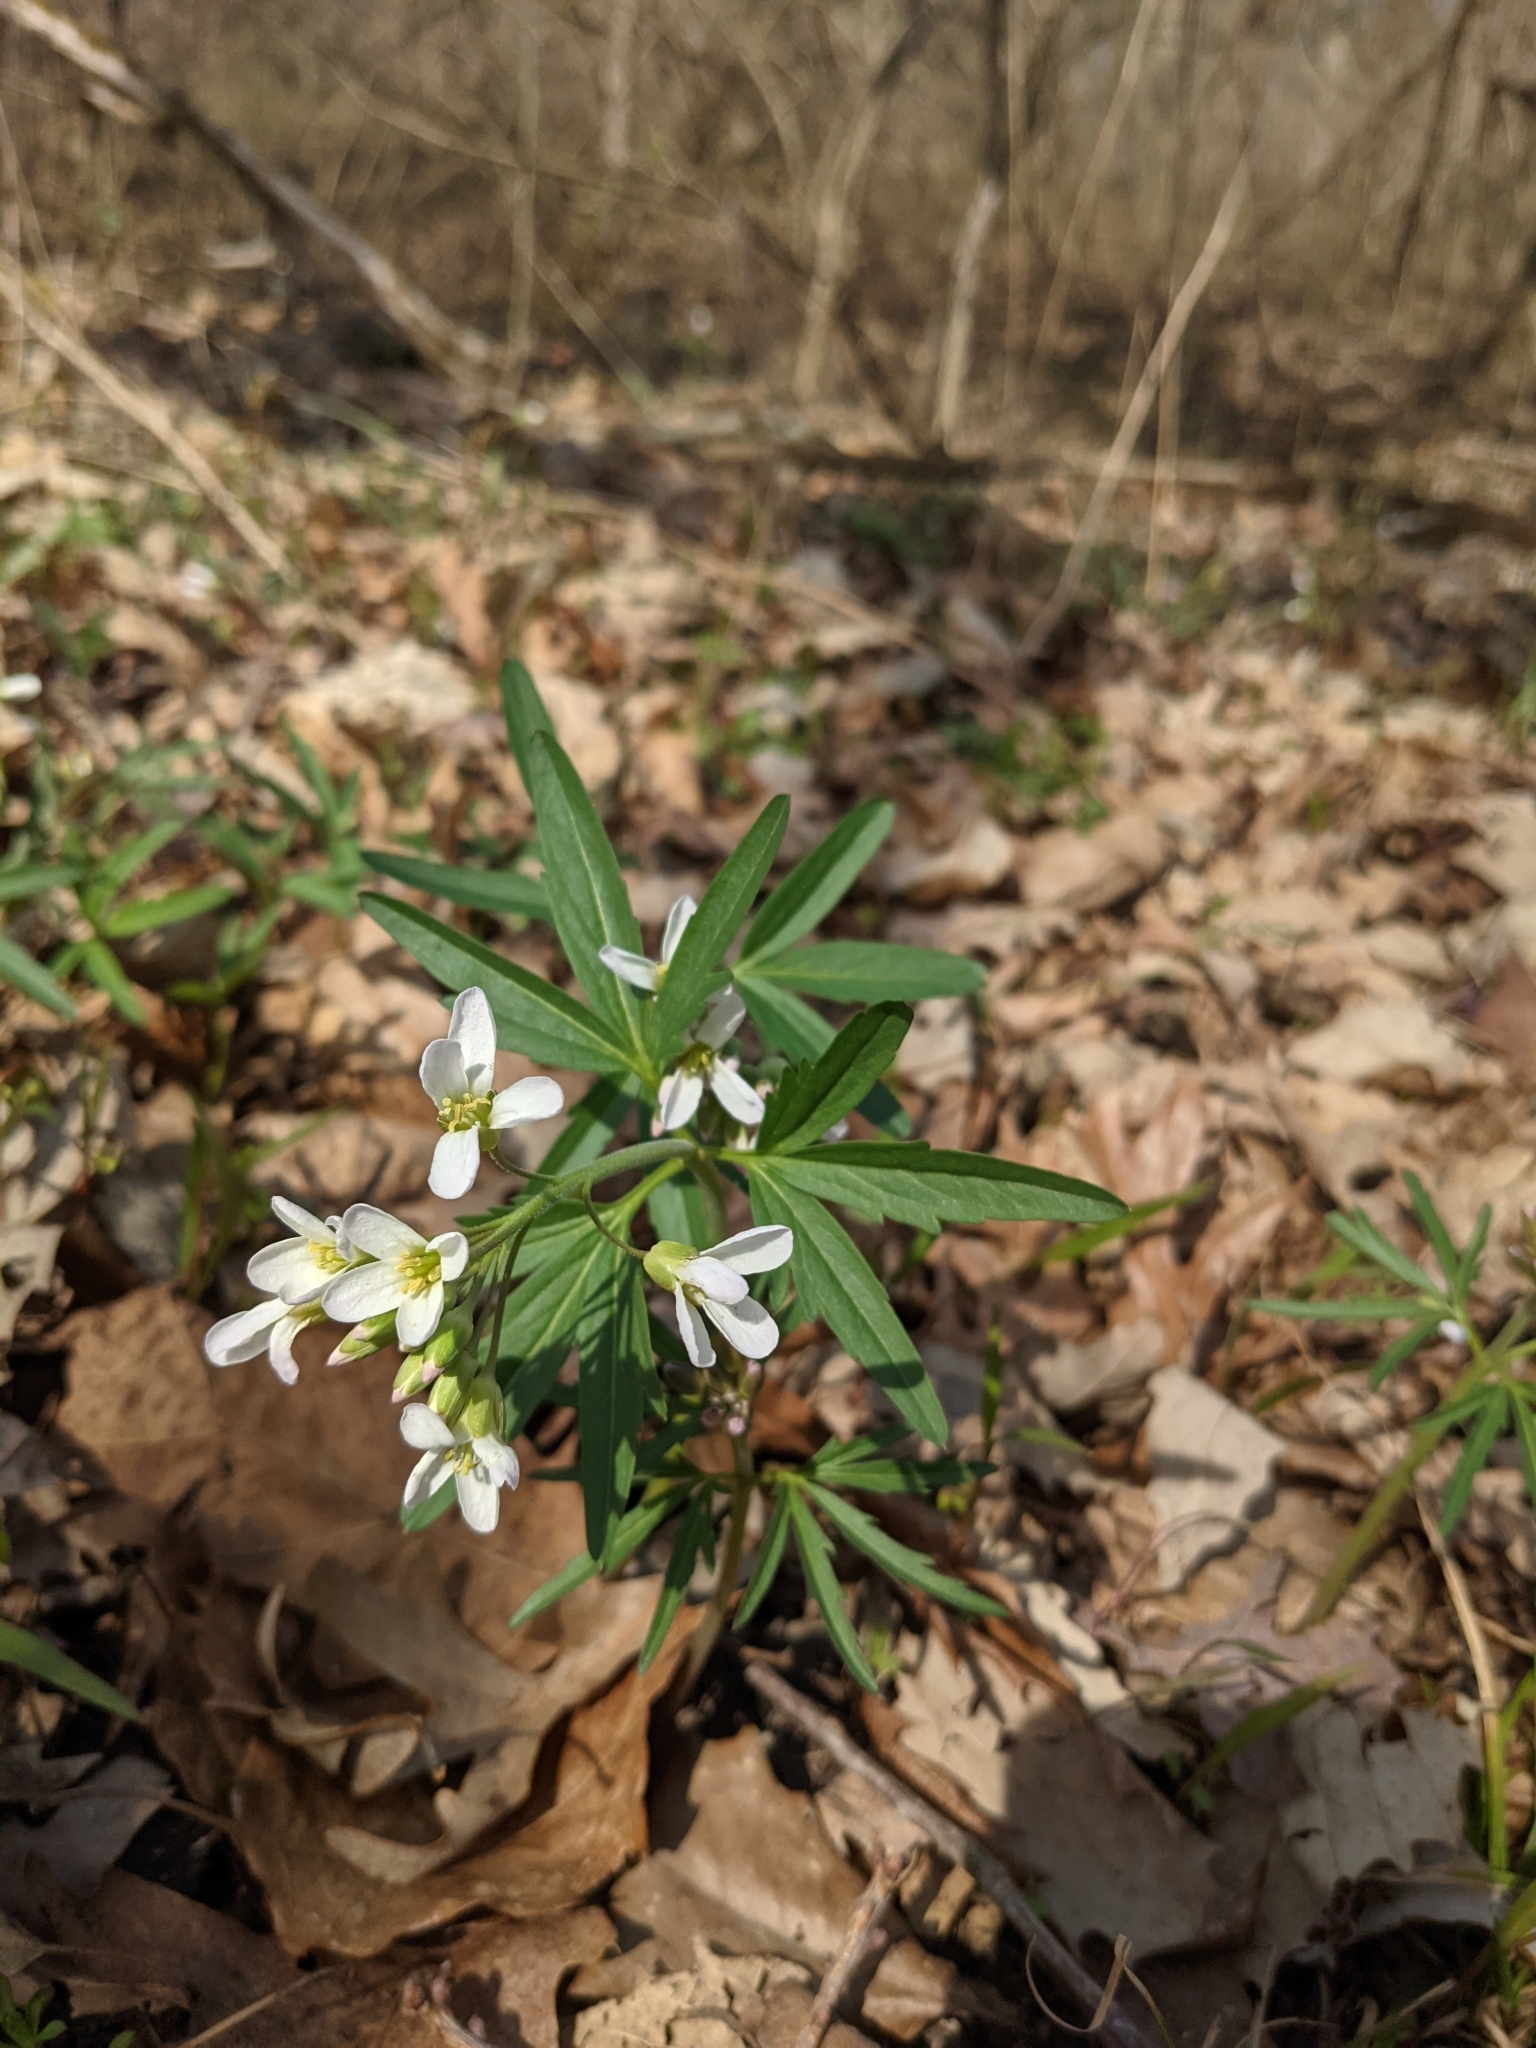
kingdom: Plantae
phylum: Tracheophyta
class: Magnoliopsida
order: Brassicales
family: Brassicaceae
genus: Cardamine
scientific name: Cardamine concatenata
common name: Cut-leaf toothcup
